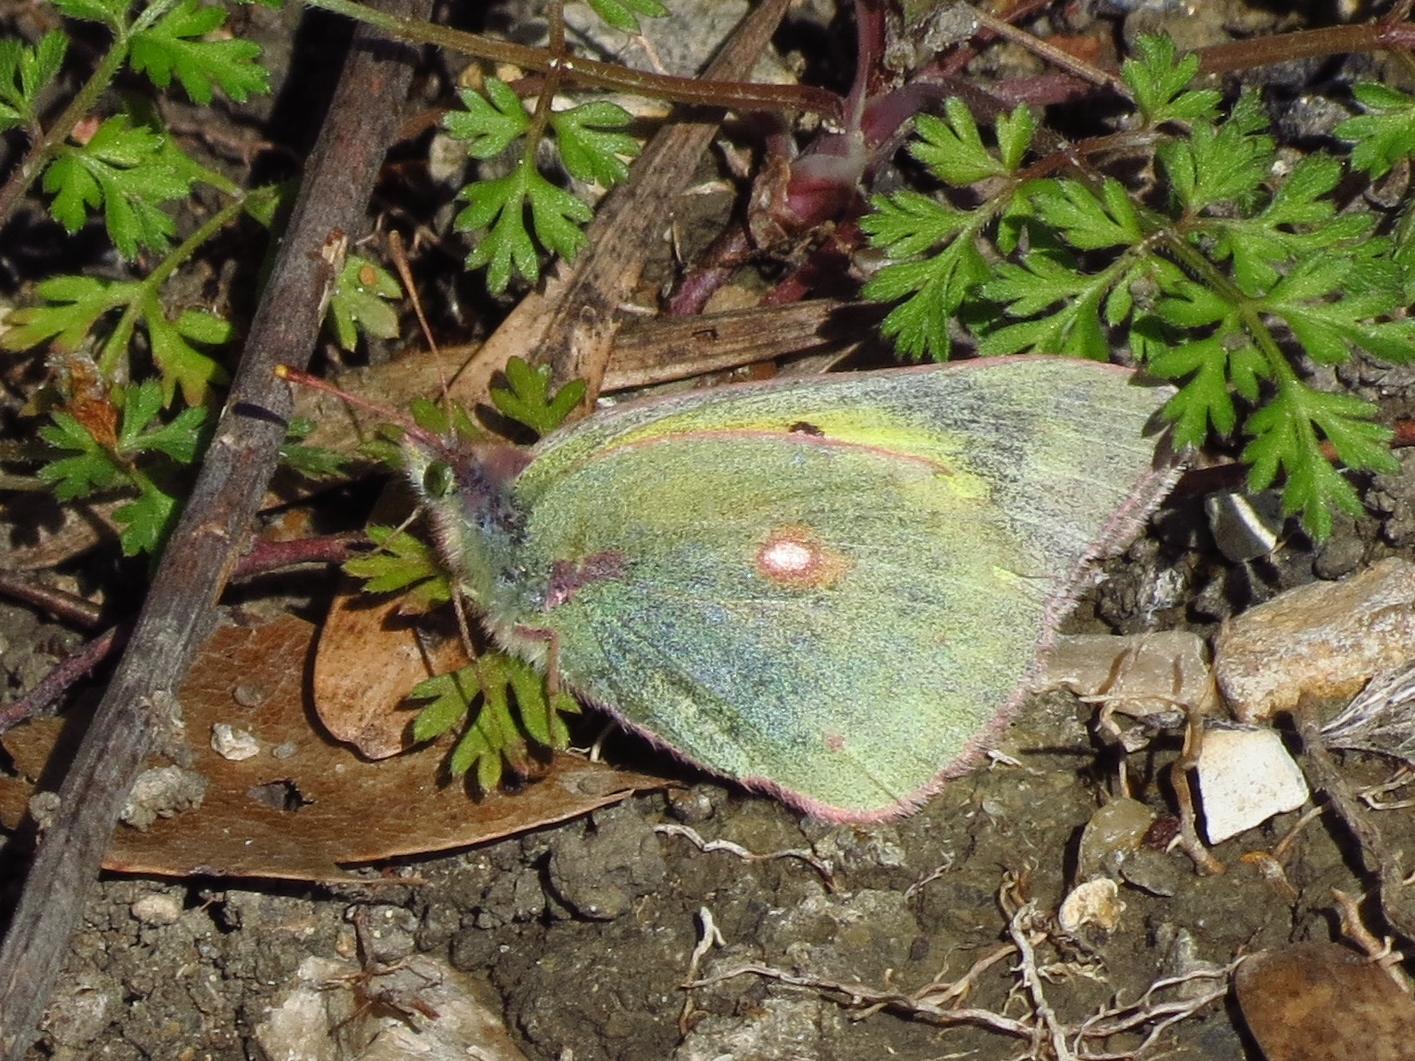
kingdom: Animalia
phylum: Arthropoda
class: Insecta
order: Lepidoptera
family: Pieridae
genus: Colias
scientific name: Colias eurytheme
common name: Alfalfa butterfly
